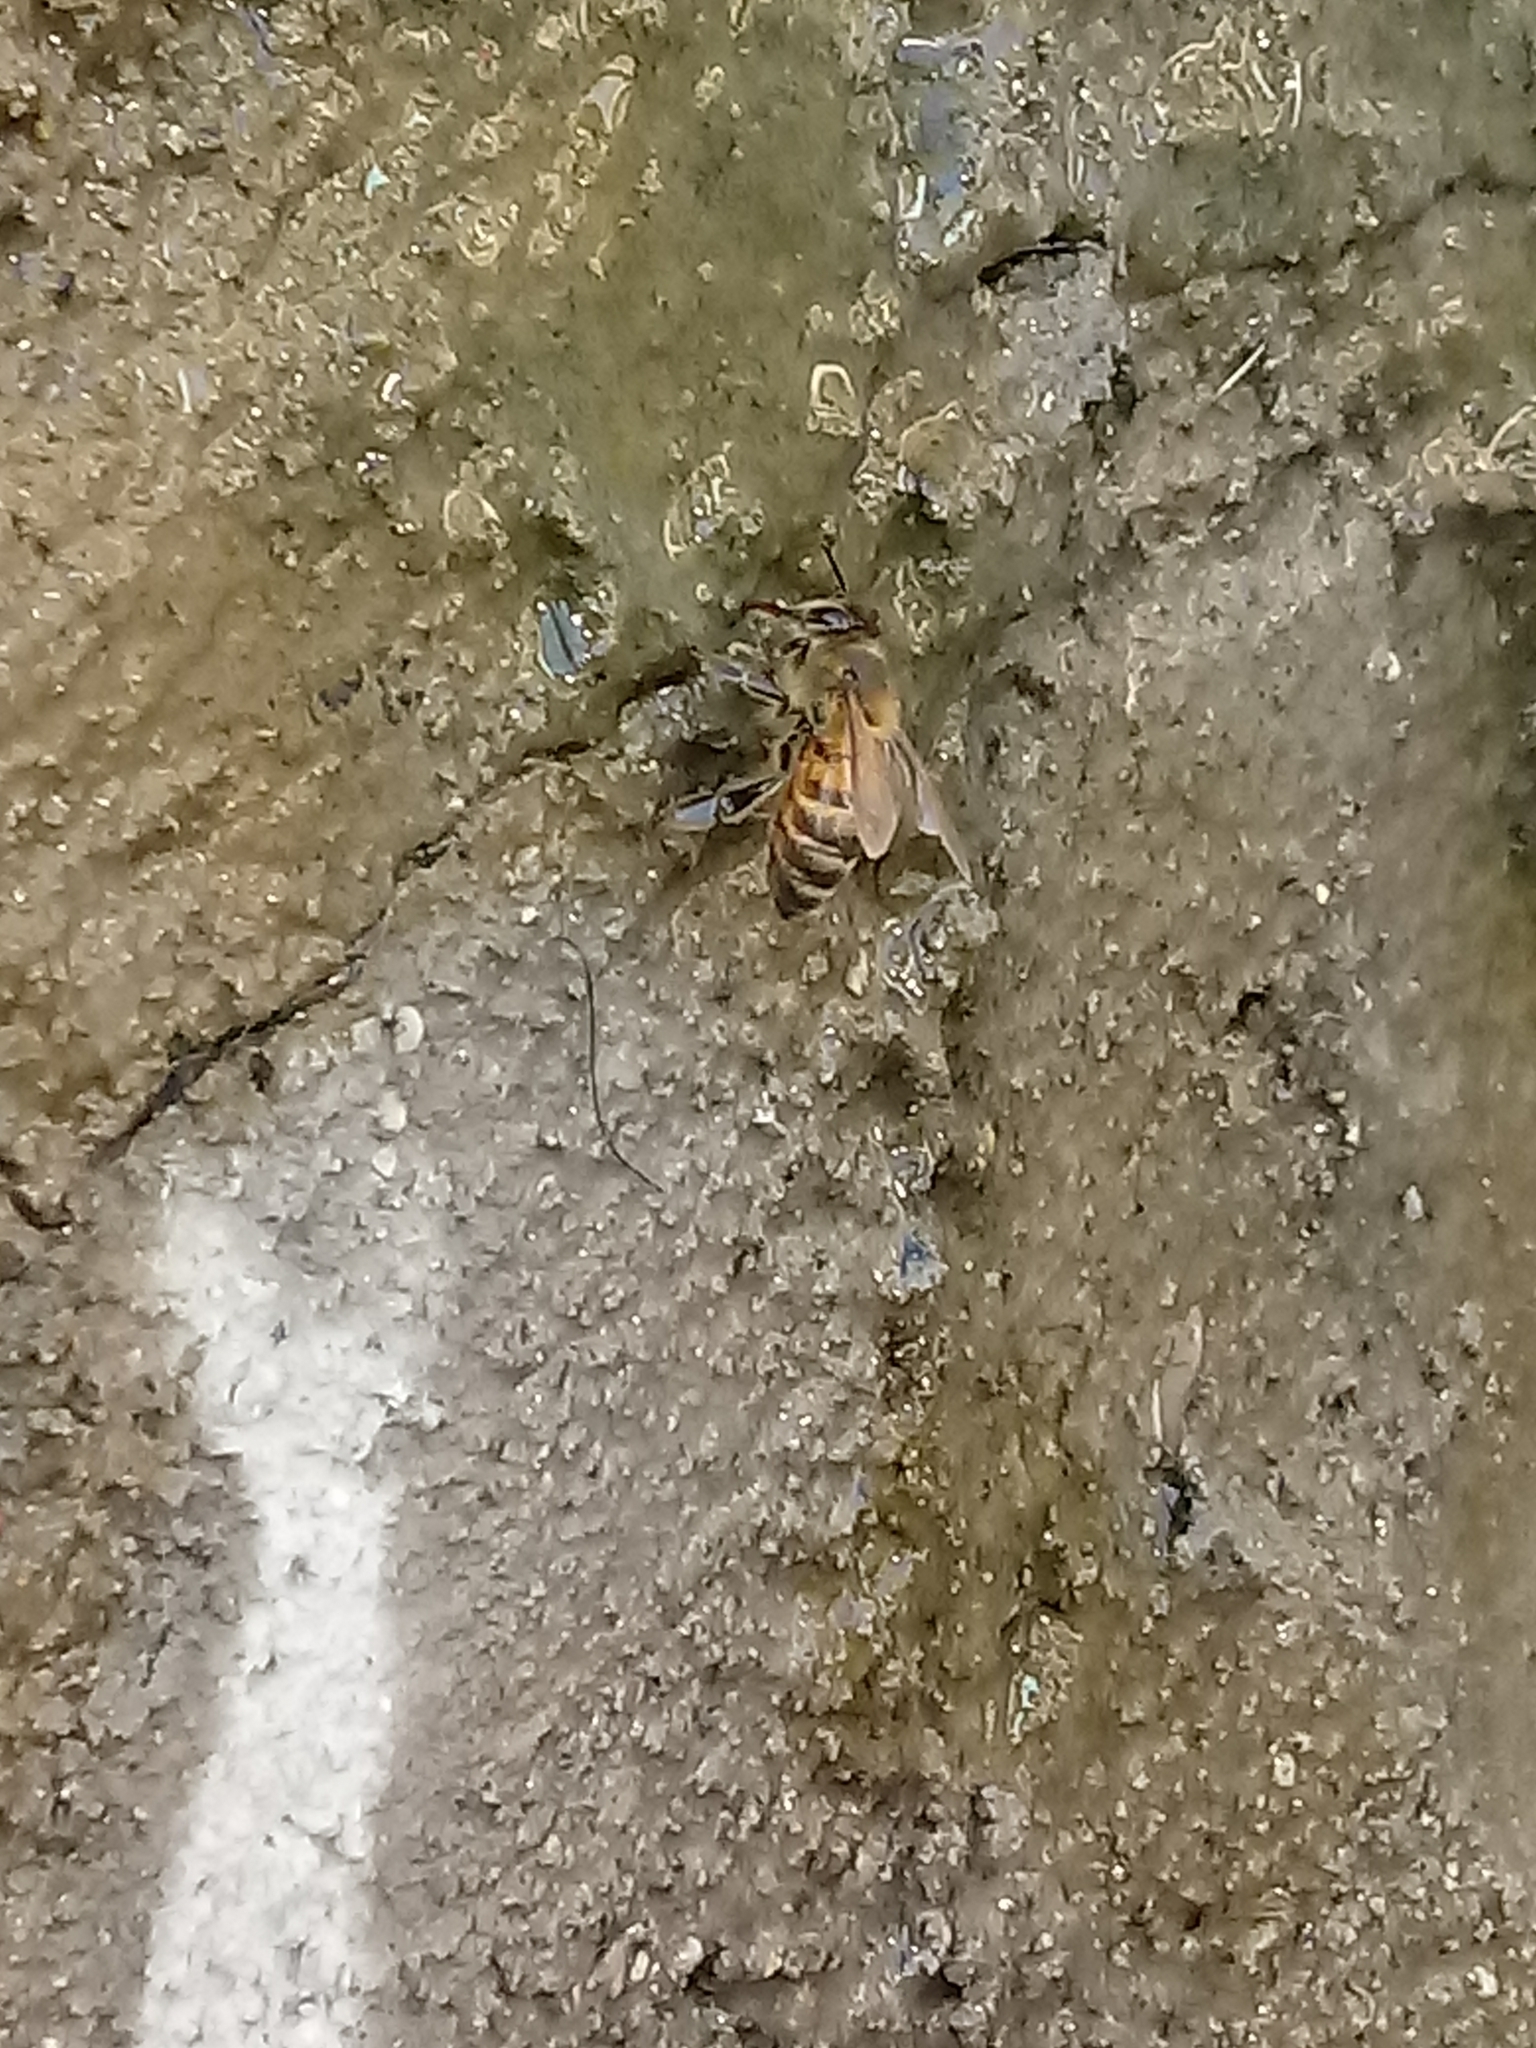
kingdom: Animalia
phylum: Arthropoda
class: Insecta
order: Hymenoptera
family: Apidae
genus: Apis
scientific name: Apis mellifera
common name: Honey bee
